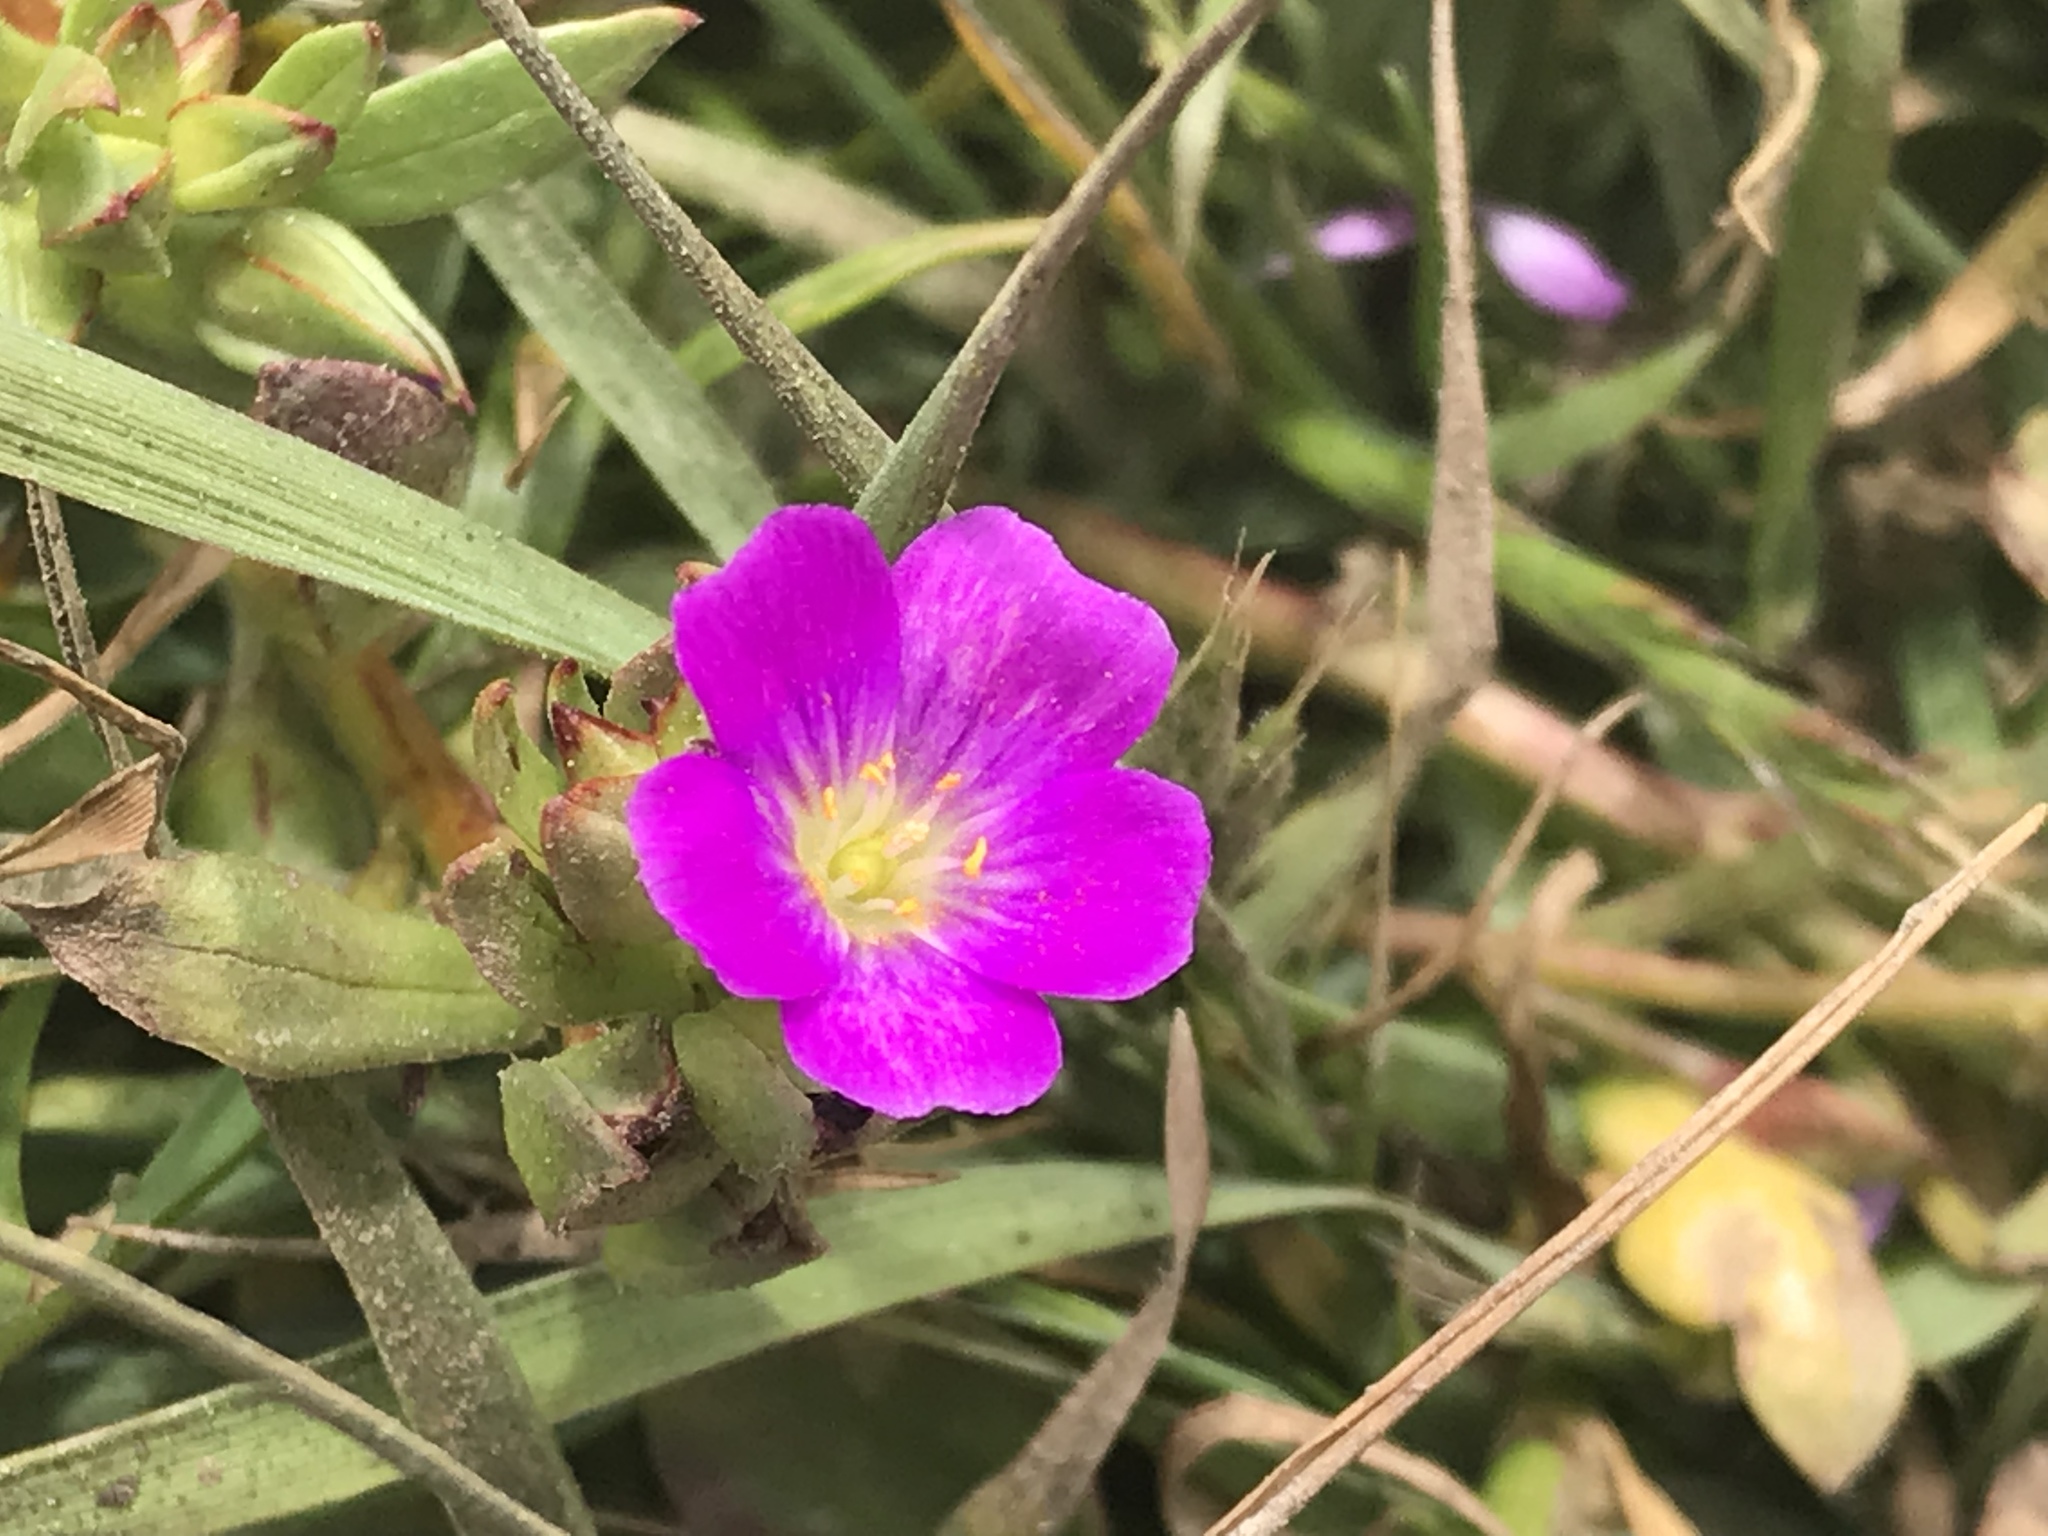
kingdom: Plantae
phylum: Tracheophyta
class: Magnoliopsida
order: Caryophyllales
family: Montiaceae
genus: Calandrinia
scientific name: Calandrinia menziesii
